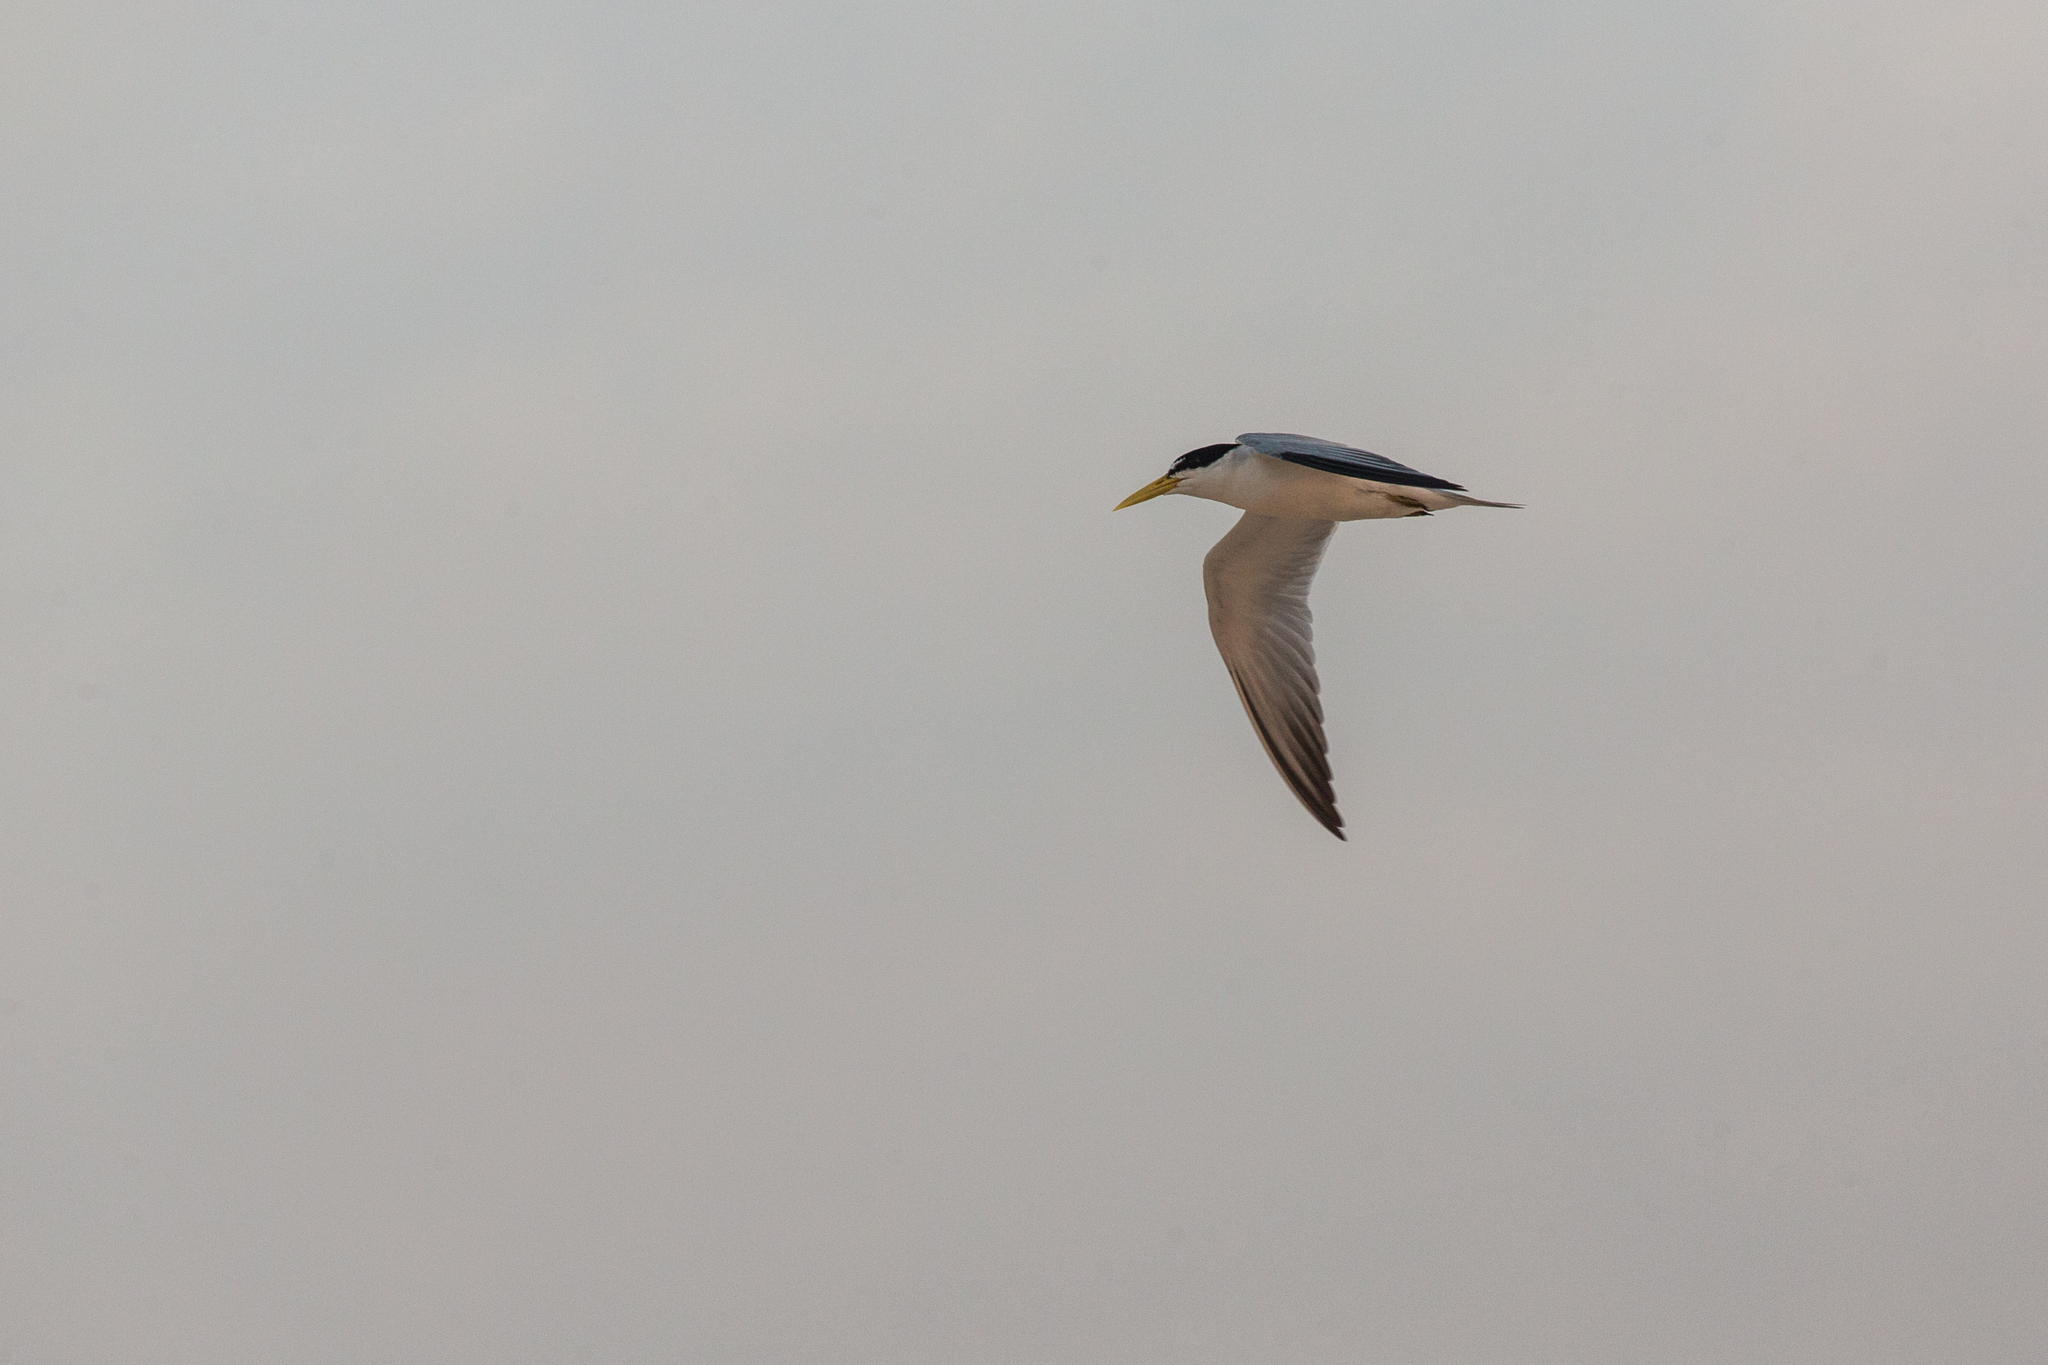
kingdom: Animalia
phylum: Chordata
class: Aves
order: Charadriiformes
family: Laridae
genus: Sternula
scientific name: Sternula superciliaris
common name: Yellow-billed tern
